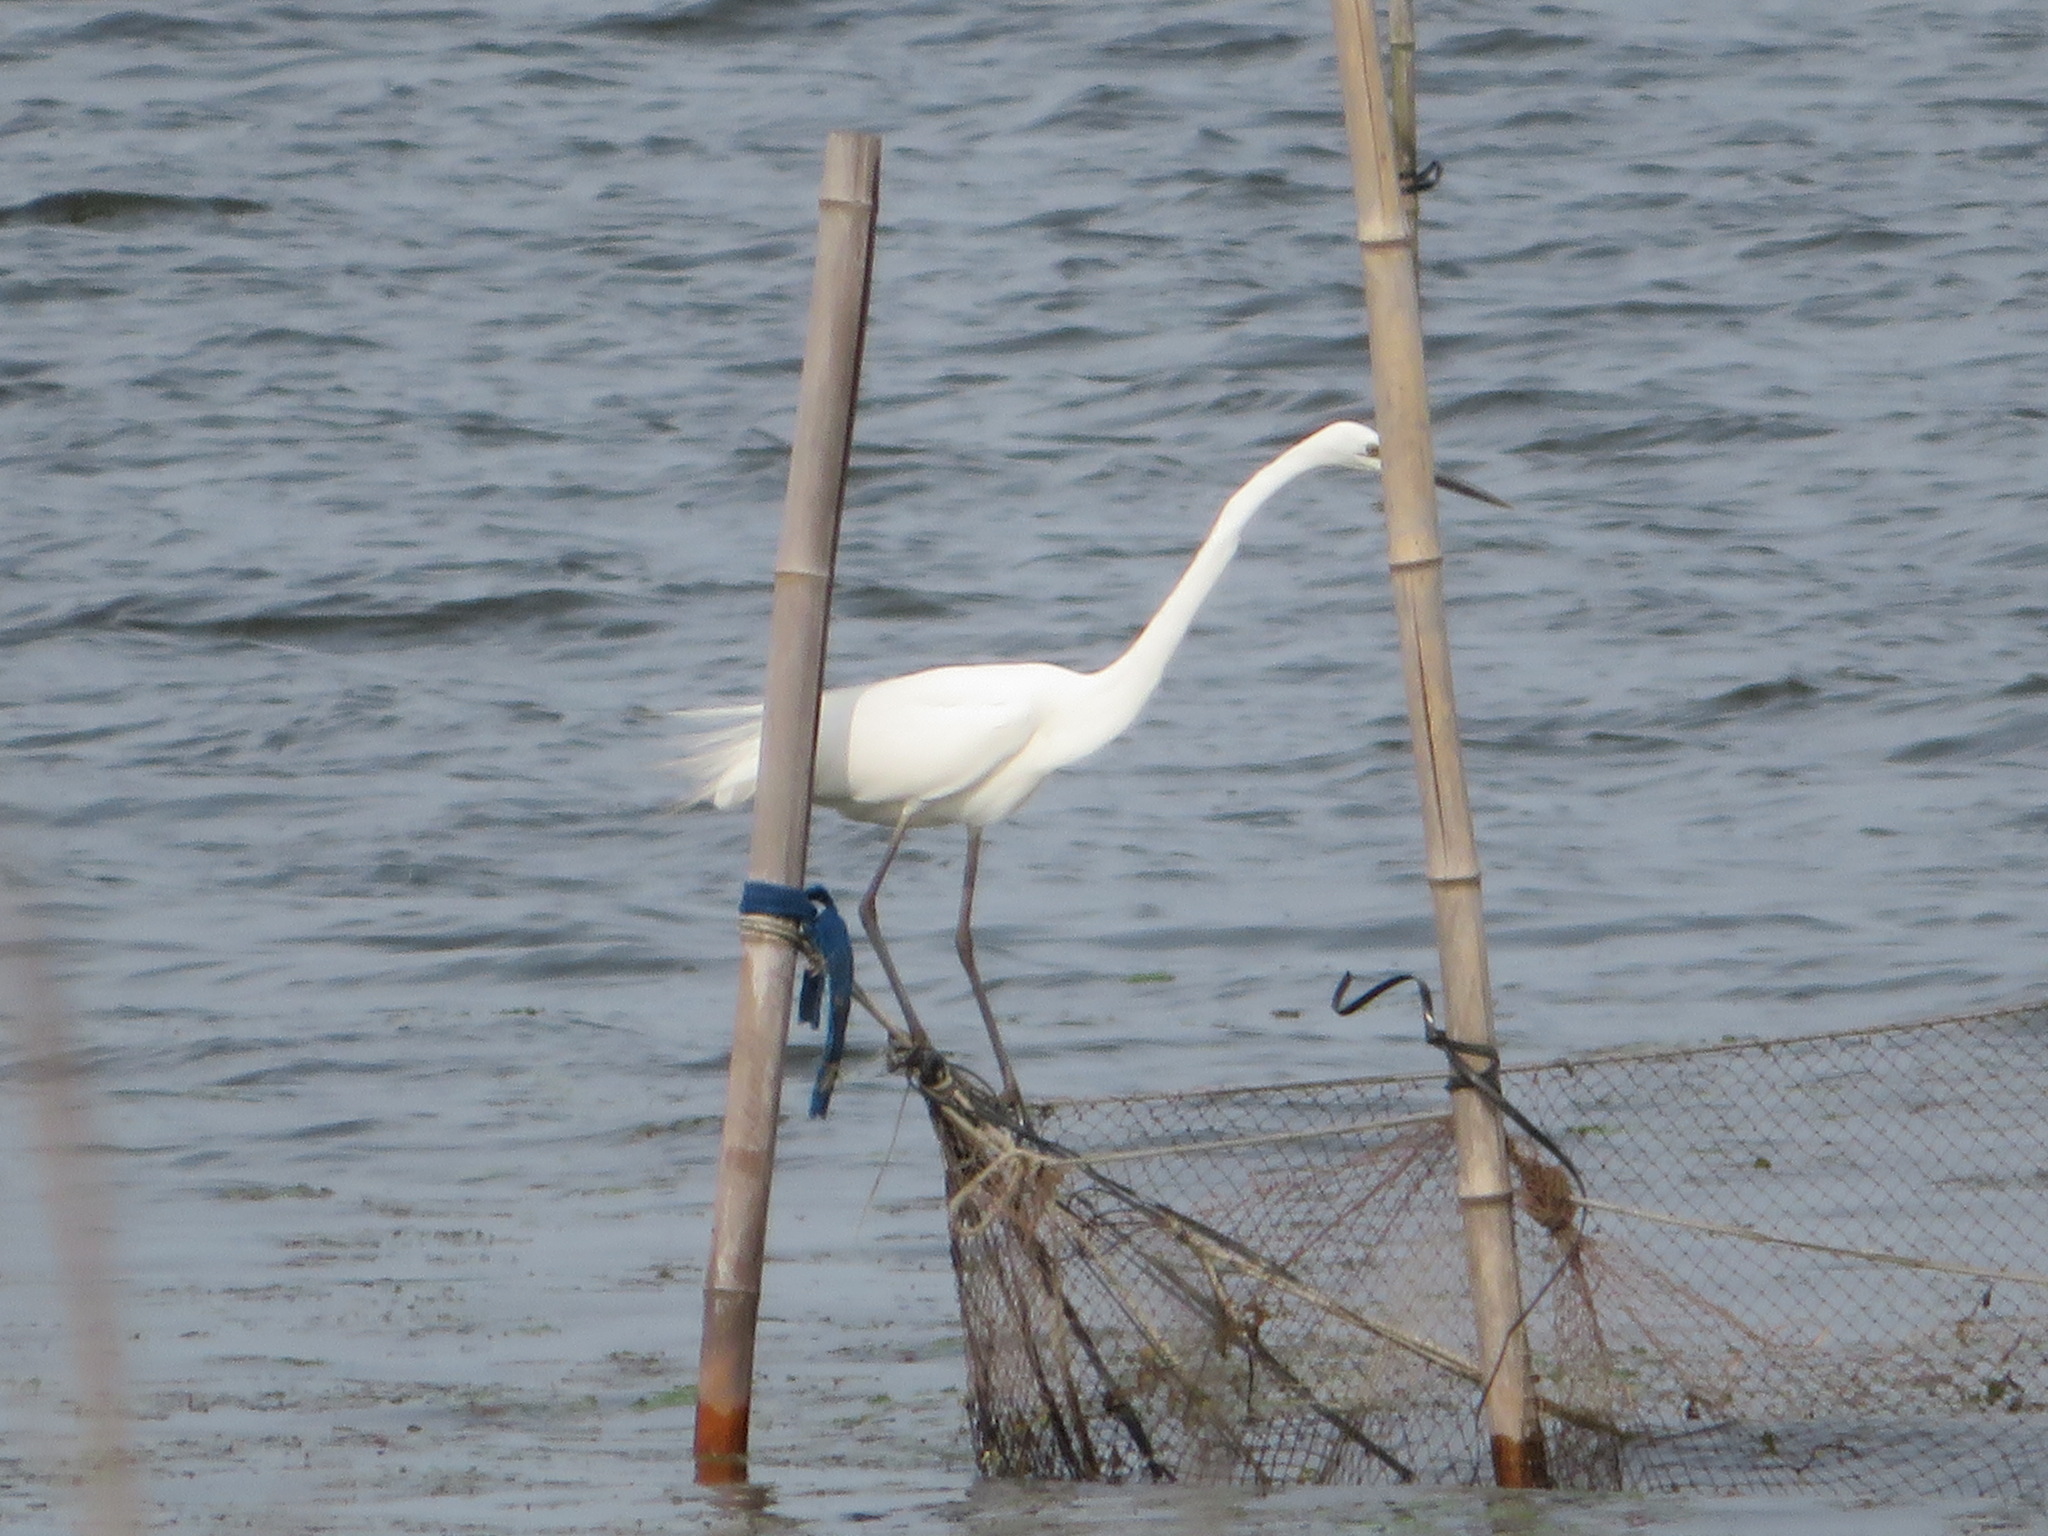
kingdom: Animalia
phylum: Chordata
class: Aves
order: Pelecaniformes
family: Ardeidae
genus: Ardea
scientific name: Ardea modesta
